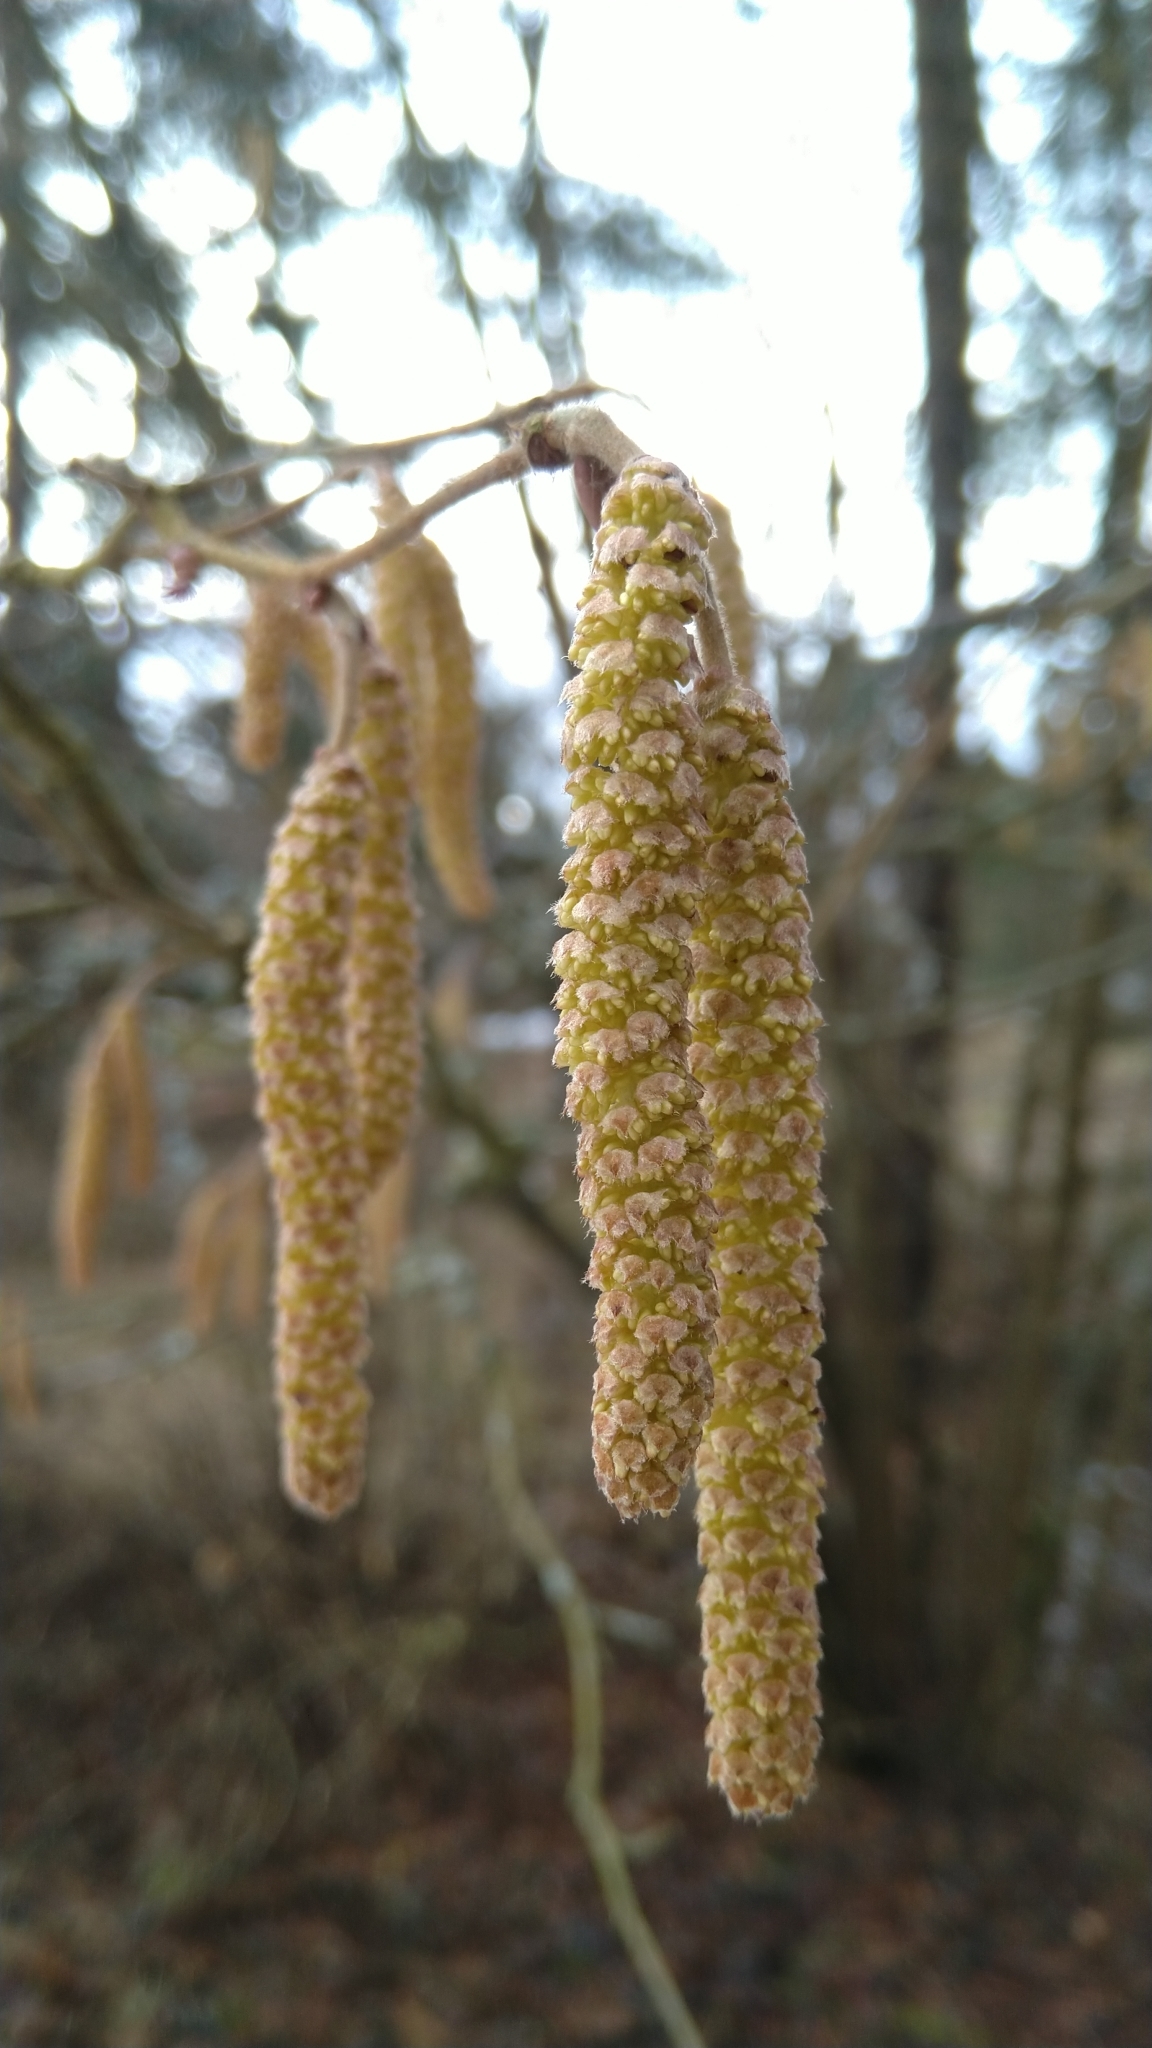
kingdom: Plantae
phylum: Tracheophyta
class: Magnoliopsida
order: Fagales
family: Betulaceae
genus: Corylus
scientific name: Corylus avellana
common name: European hazel
